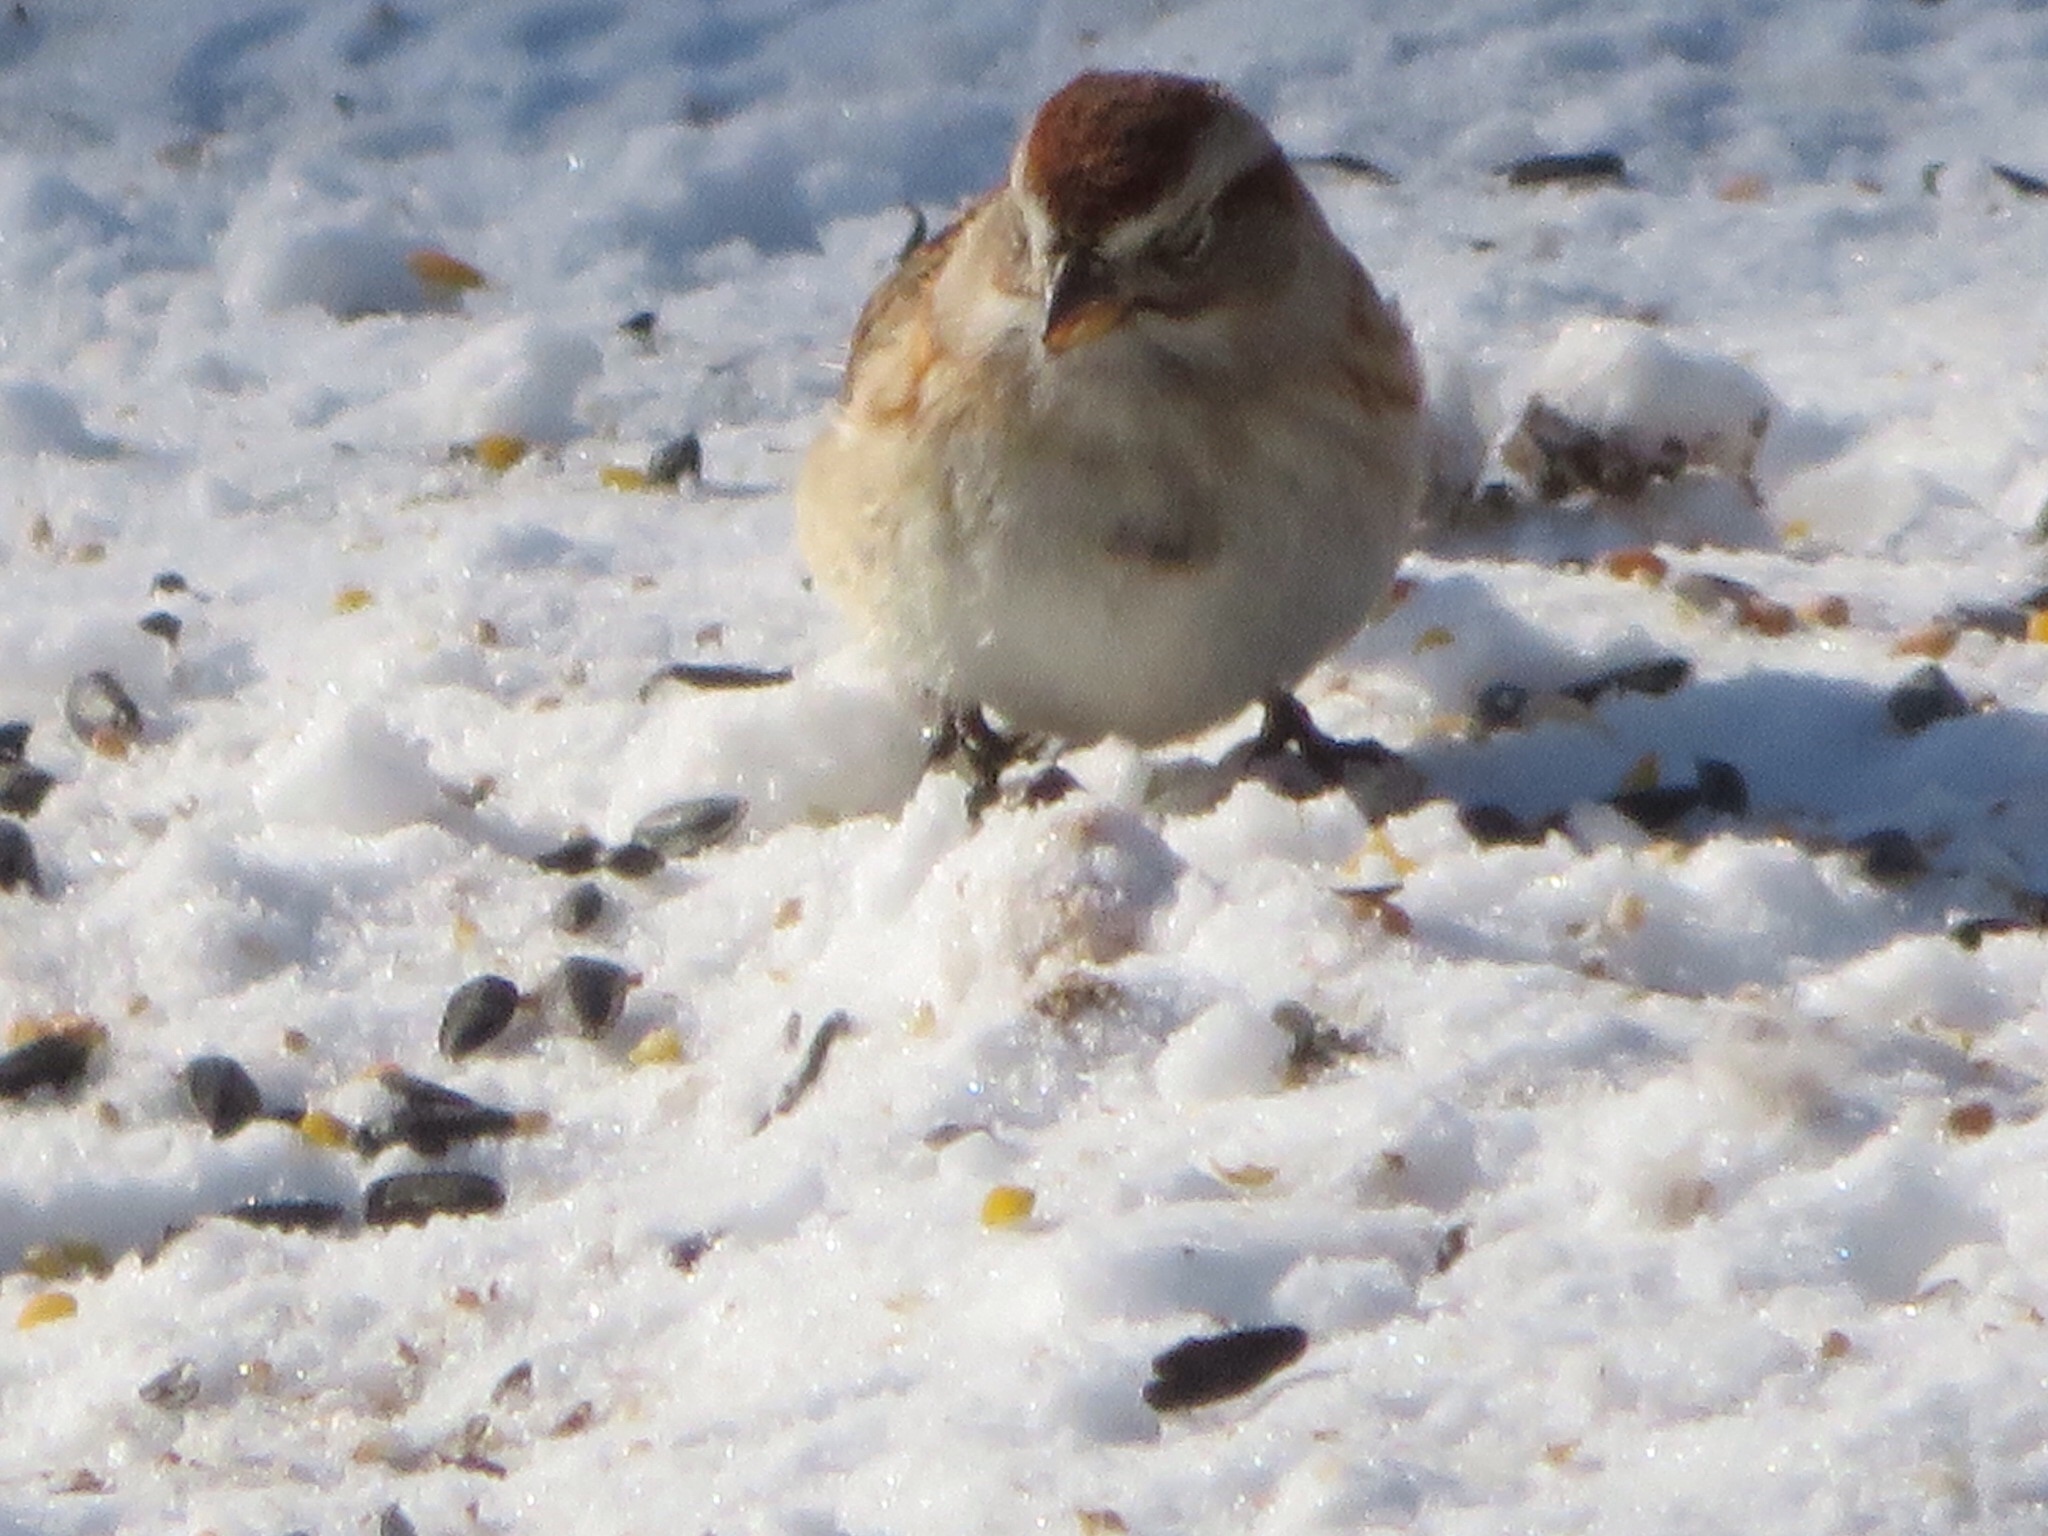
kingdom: Animalia
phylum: Chordata
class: Aves
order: Passeriformes
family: Passerellidae
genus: Spizelloides
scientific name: Spizelloides arborea
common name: American tree sparrow
